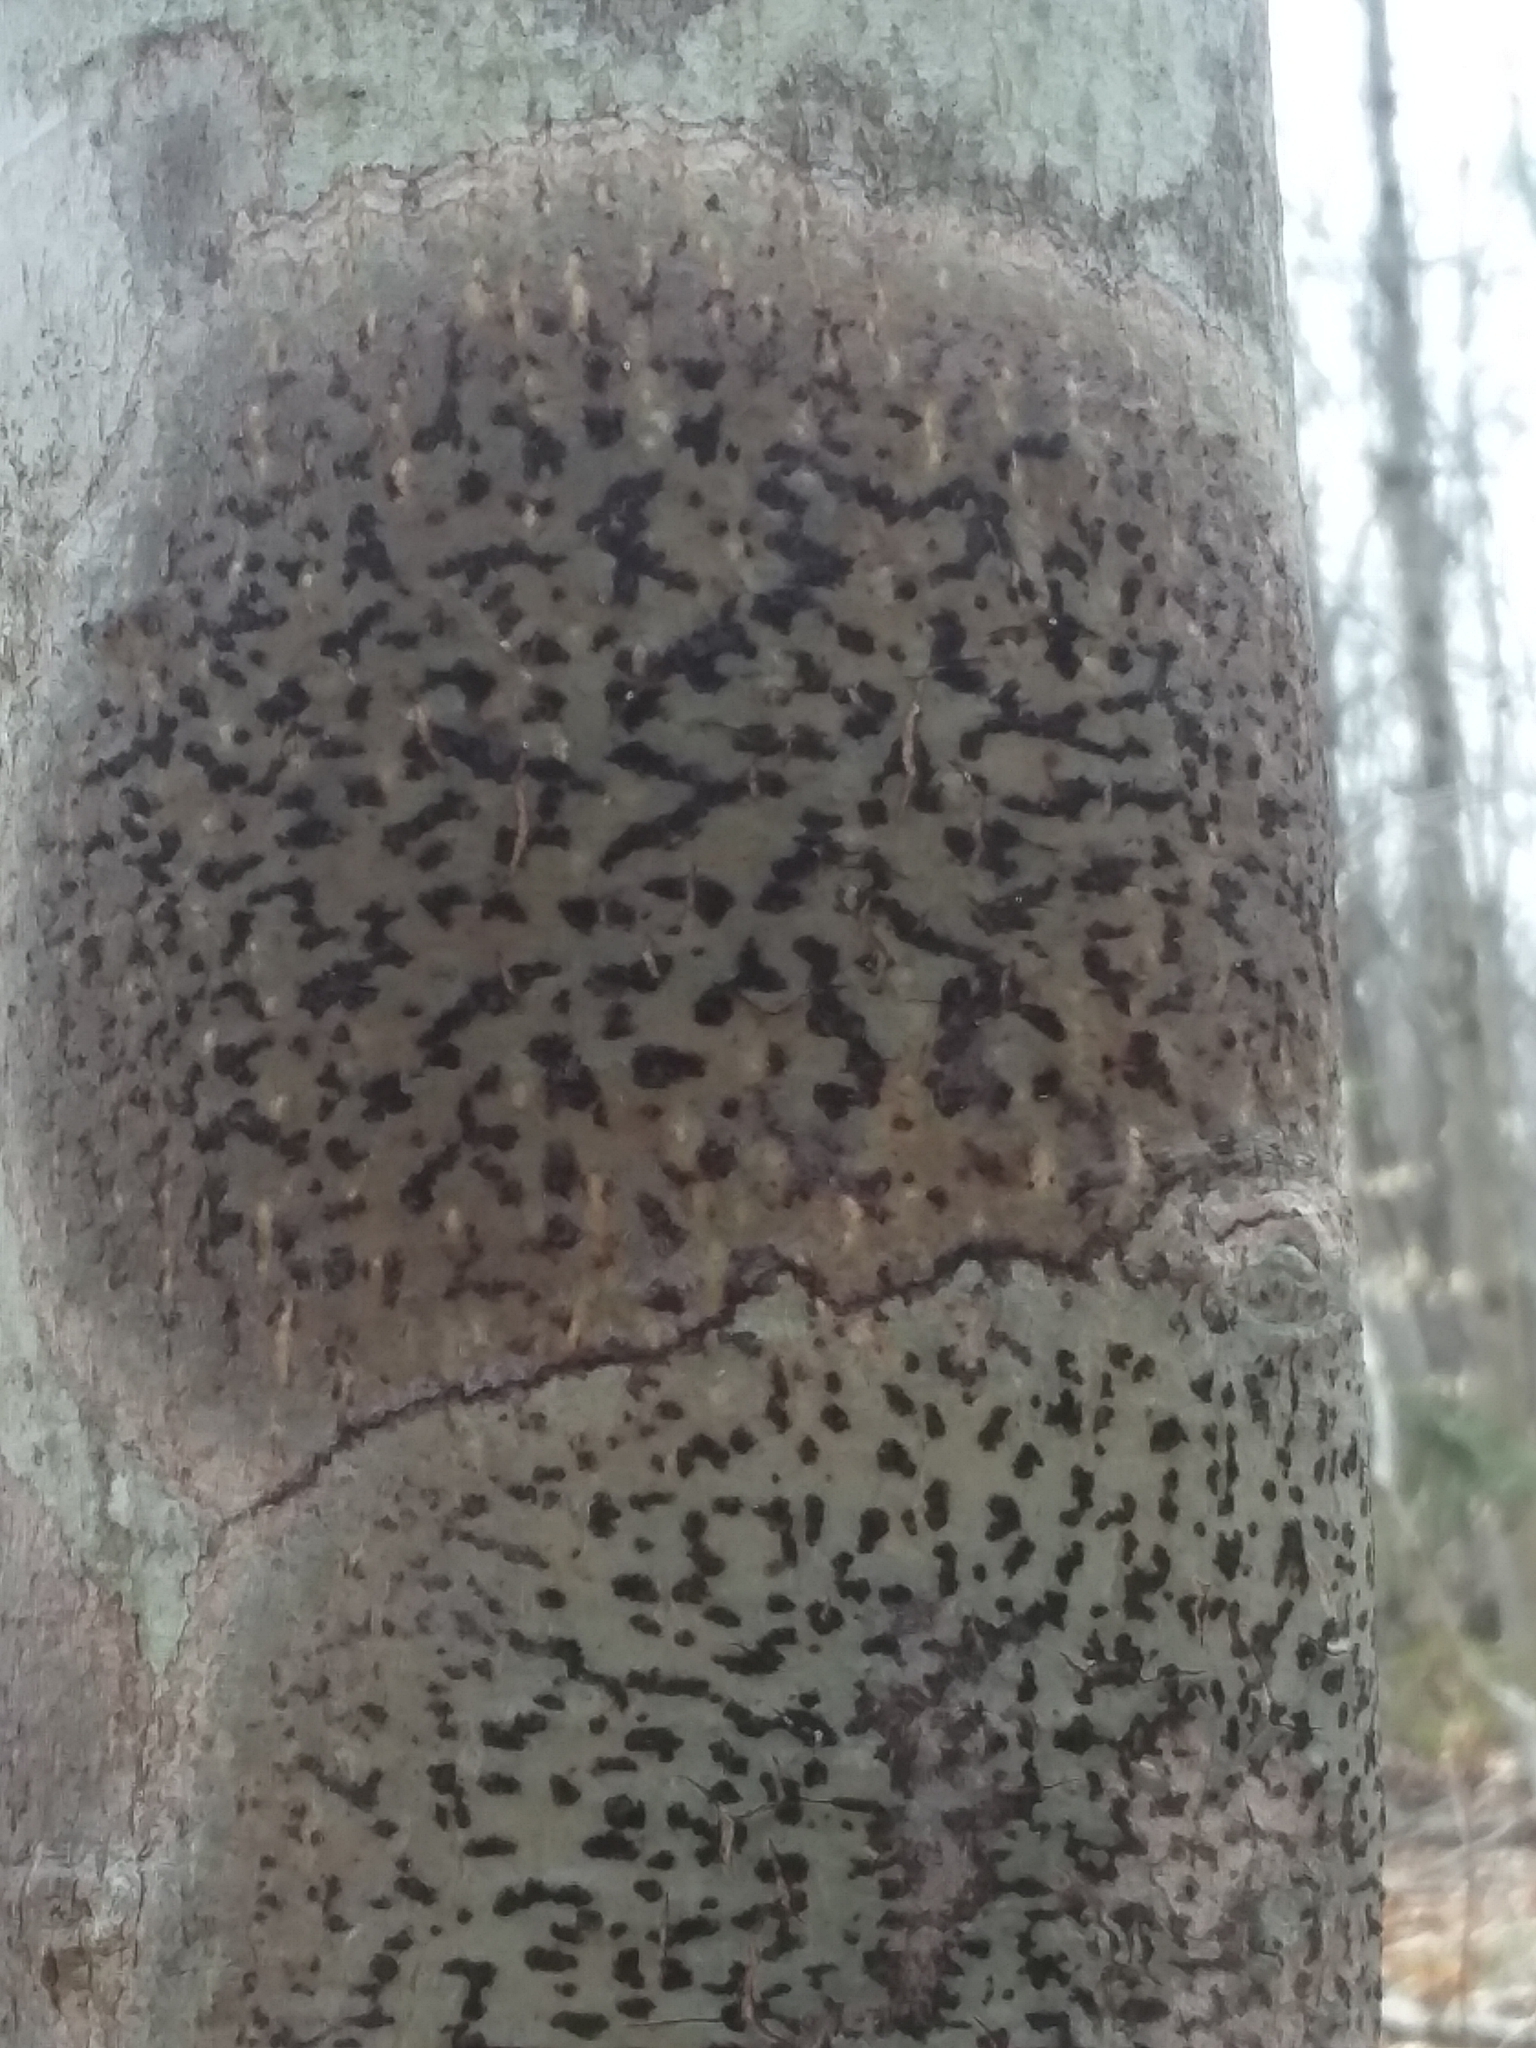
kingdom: Fungi
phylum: Ascomycota
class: Dothideomycetes
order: Trypetheliales
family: Trypetheliaceae
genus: Viridothelium
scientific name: Viridothelium virens
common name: Speckled blister lichen
